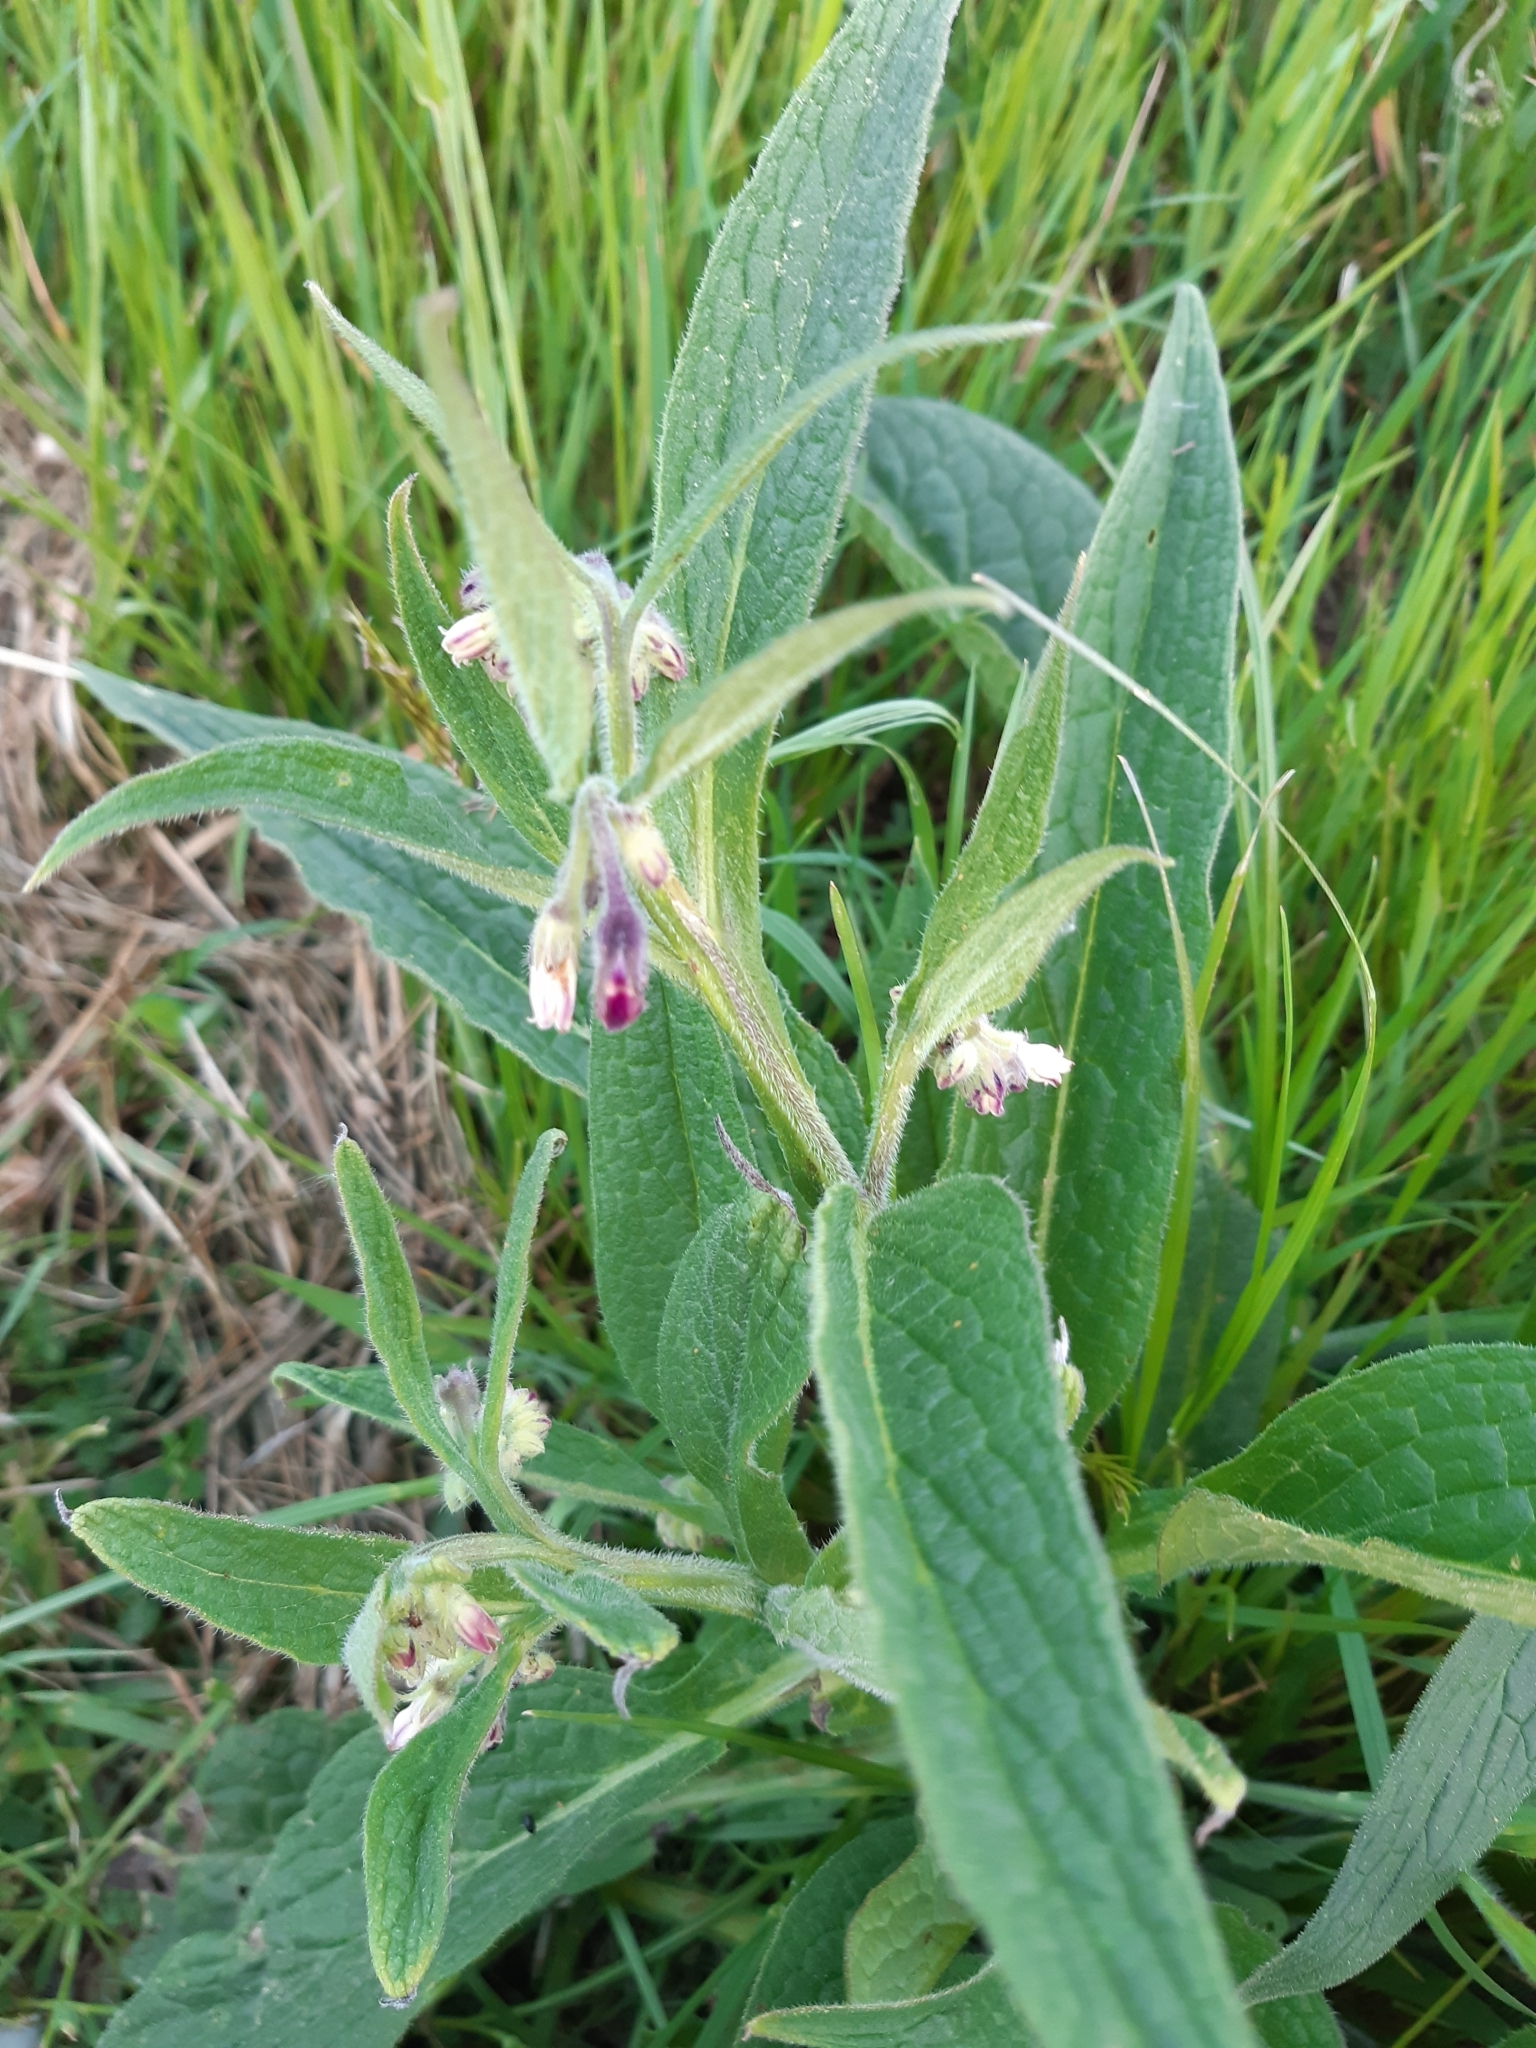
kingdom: Plantae
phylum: Tracheophyta
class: Magnoliopsida
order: Boraginales
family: Boraginaceae
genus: Symphytum
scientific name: Symphytum officinale
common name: Common comfrey
